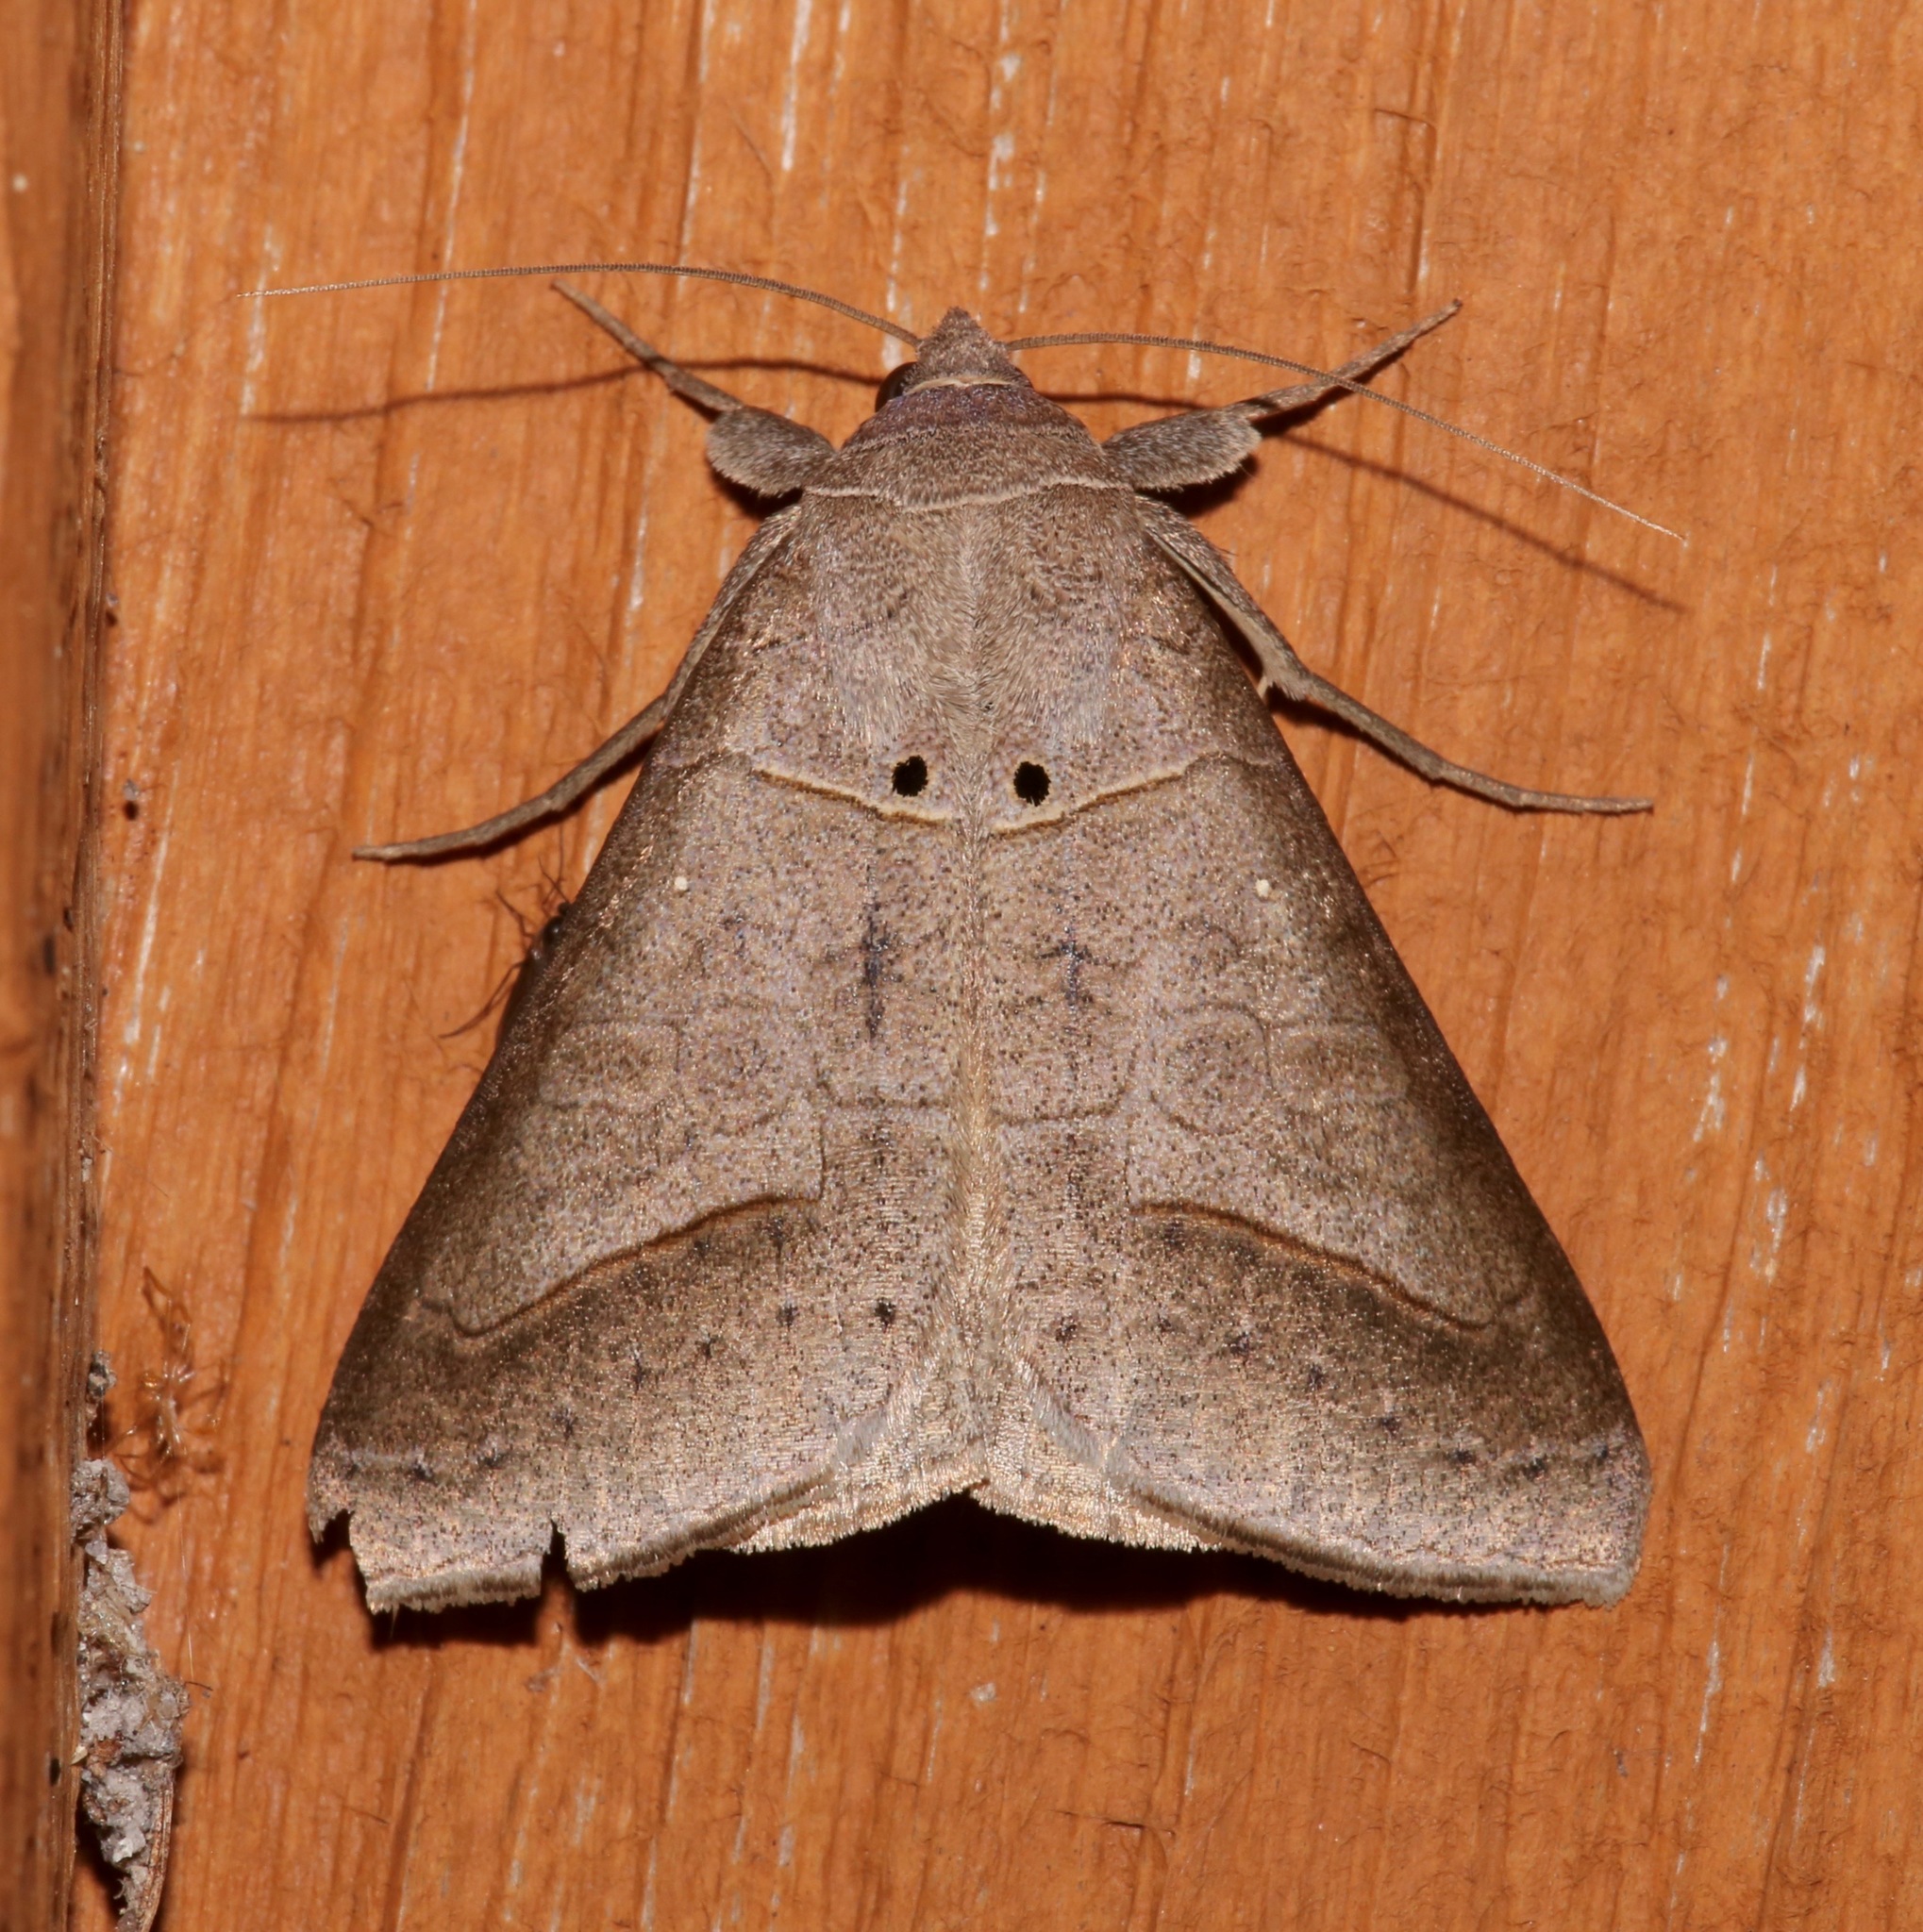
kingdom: Animalia
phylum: Arthropoda
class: Insecta
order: Lepidoptera
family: Erebidae
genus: Mocis
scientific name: Mocis marcida
